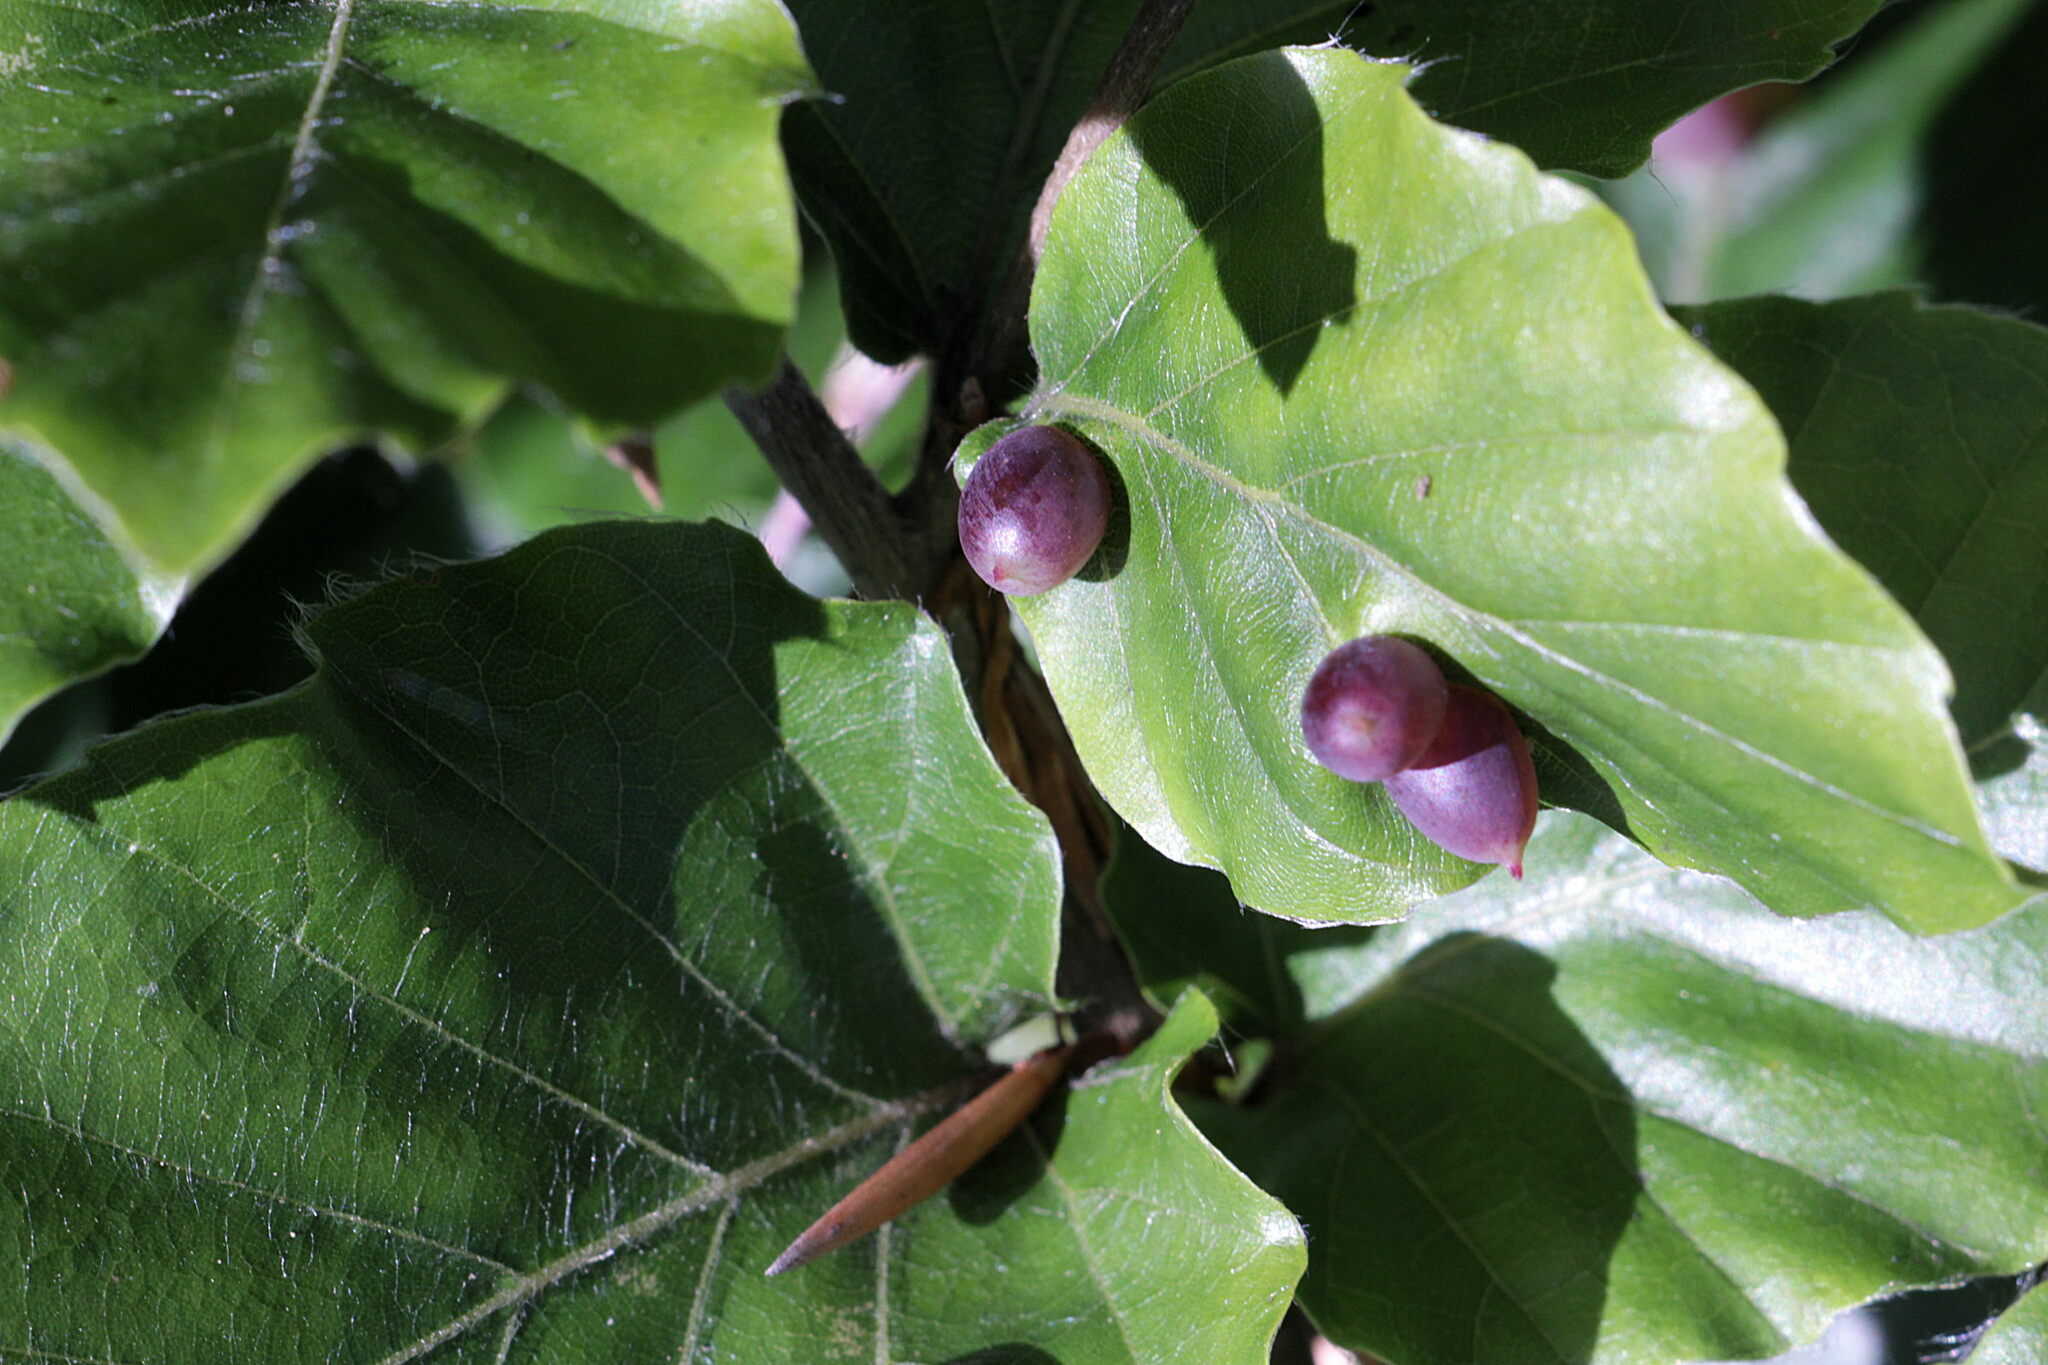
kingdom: Animalia
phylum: Arthropoda
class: Insecta
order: Diptera
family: Cecidomyiidae
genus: Mikiola
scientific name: Mikiola fagi
